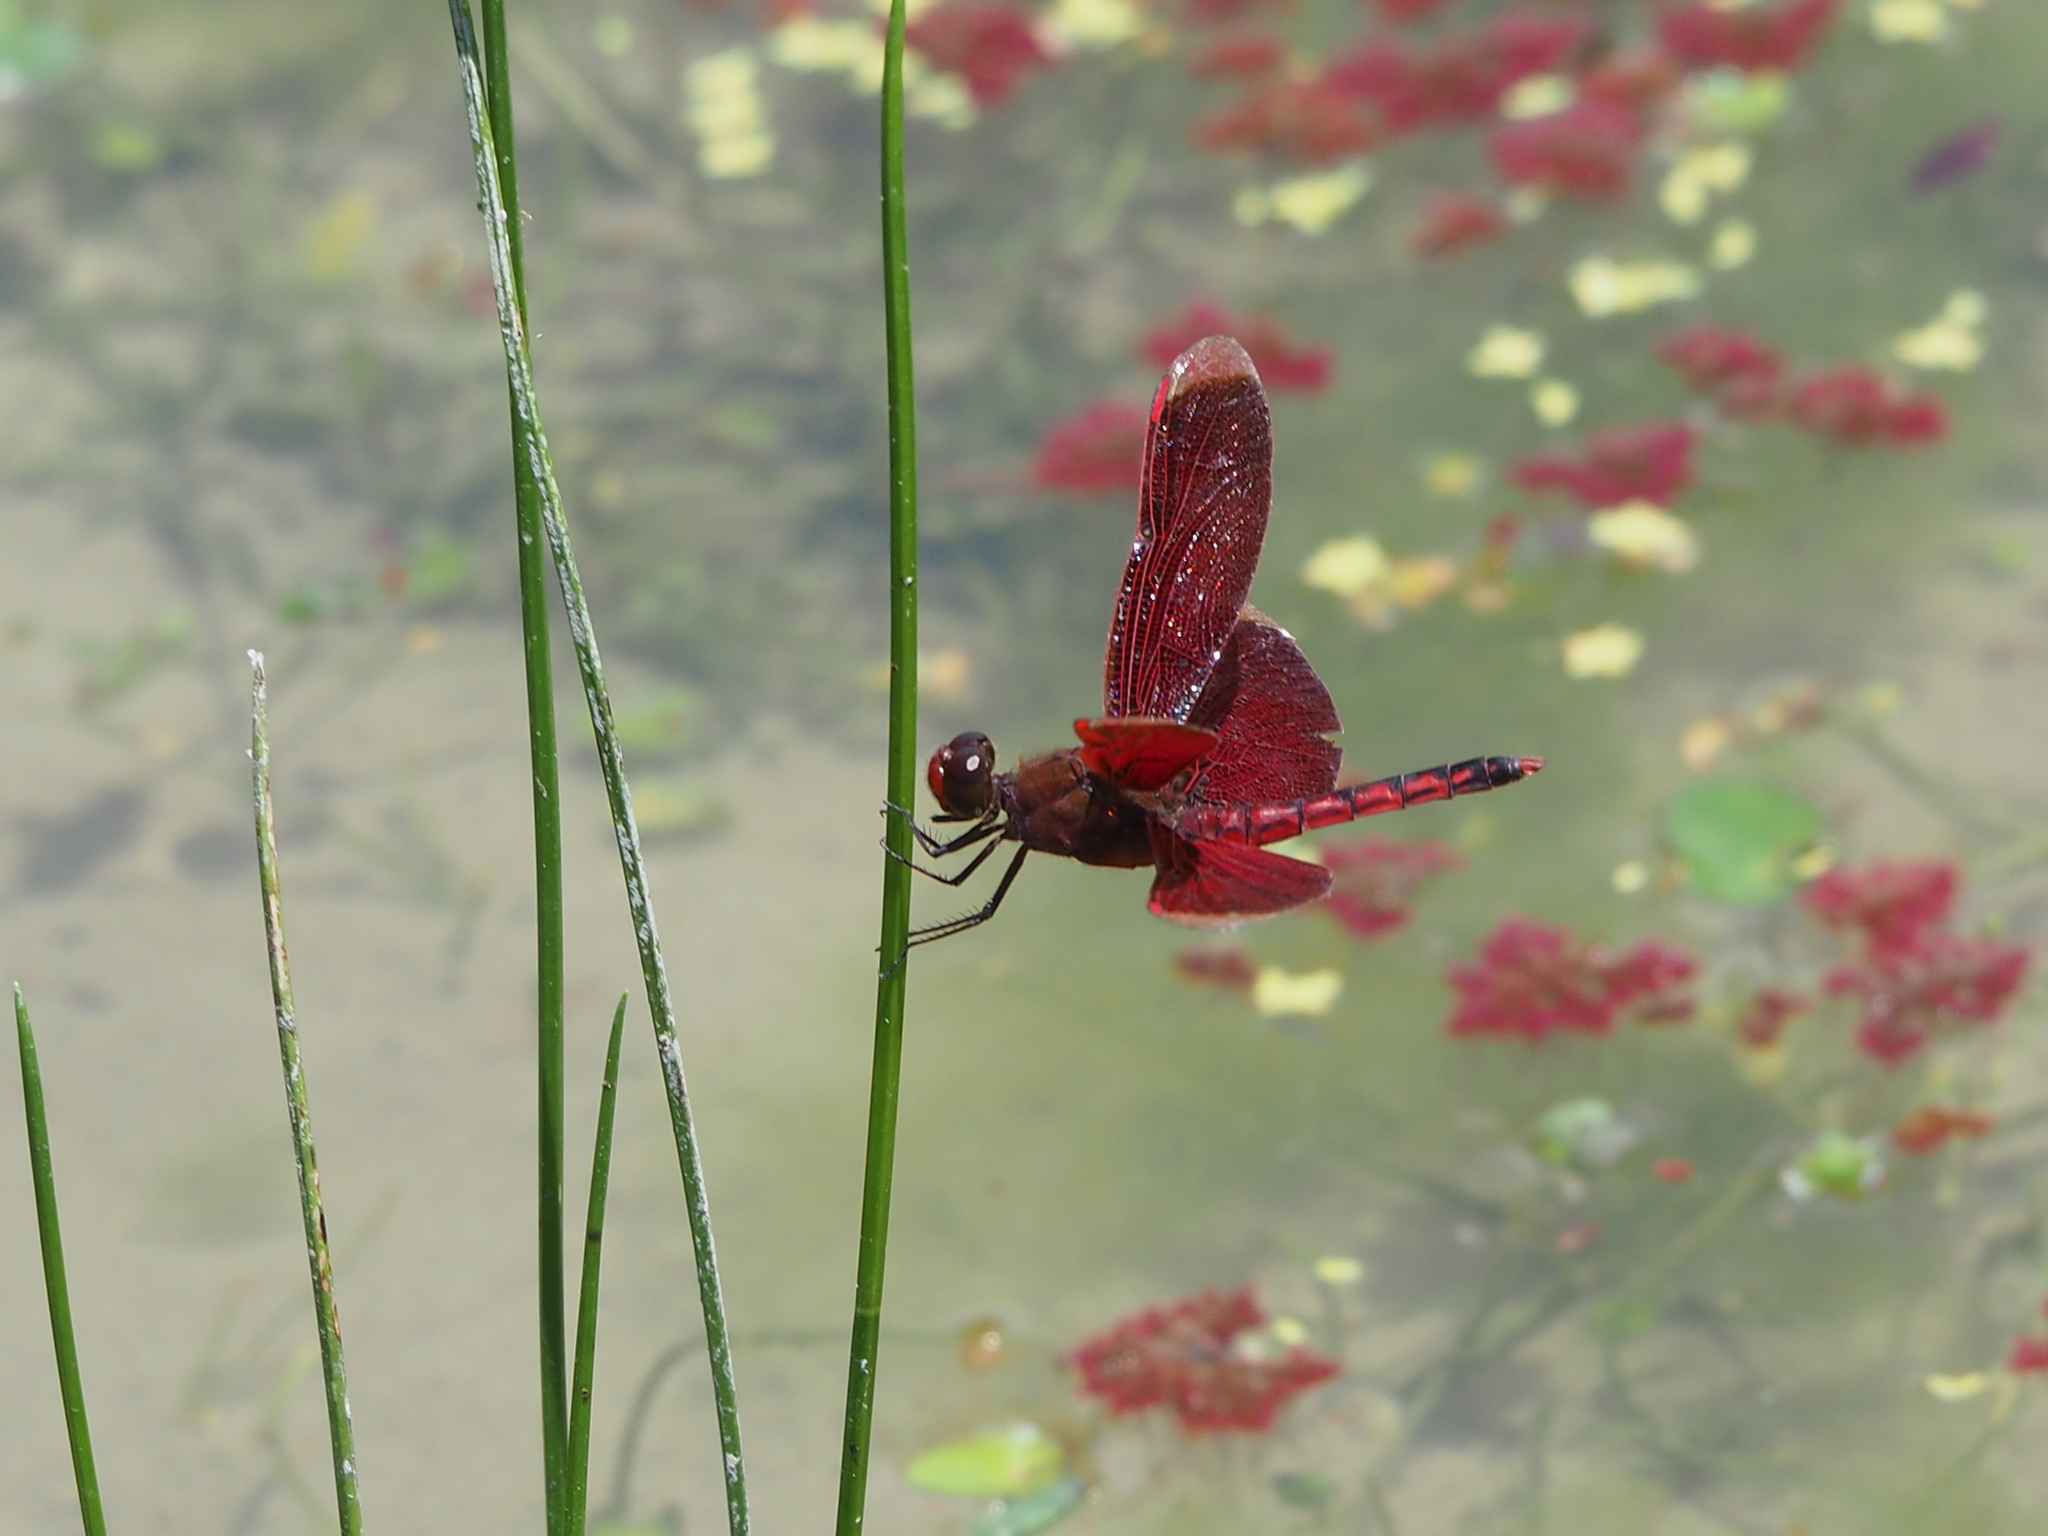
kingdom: Animalia
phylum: Arthropoda
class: Insecta
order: Odonata
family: Libellulidae
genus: Neurothemis
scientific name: Neurothemis taiwanensis
